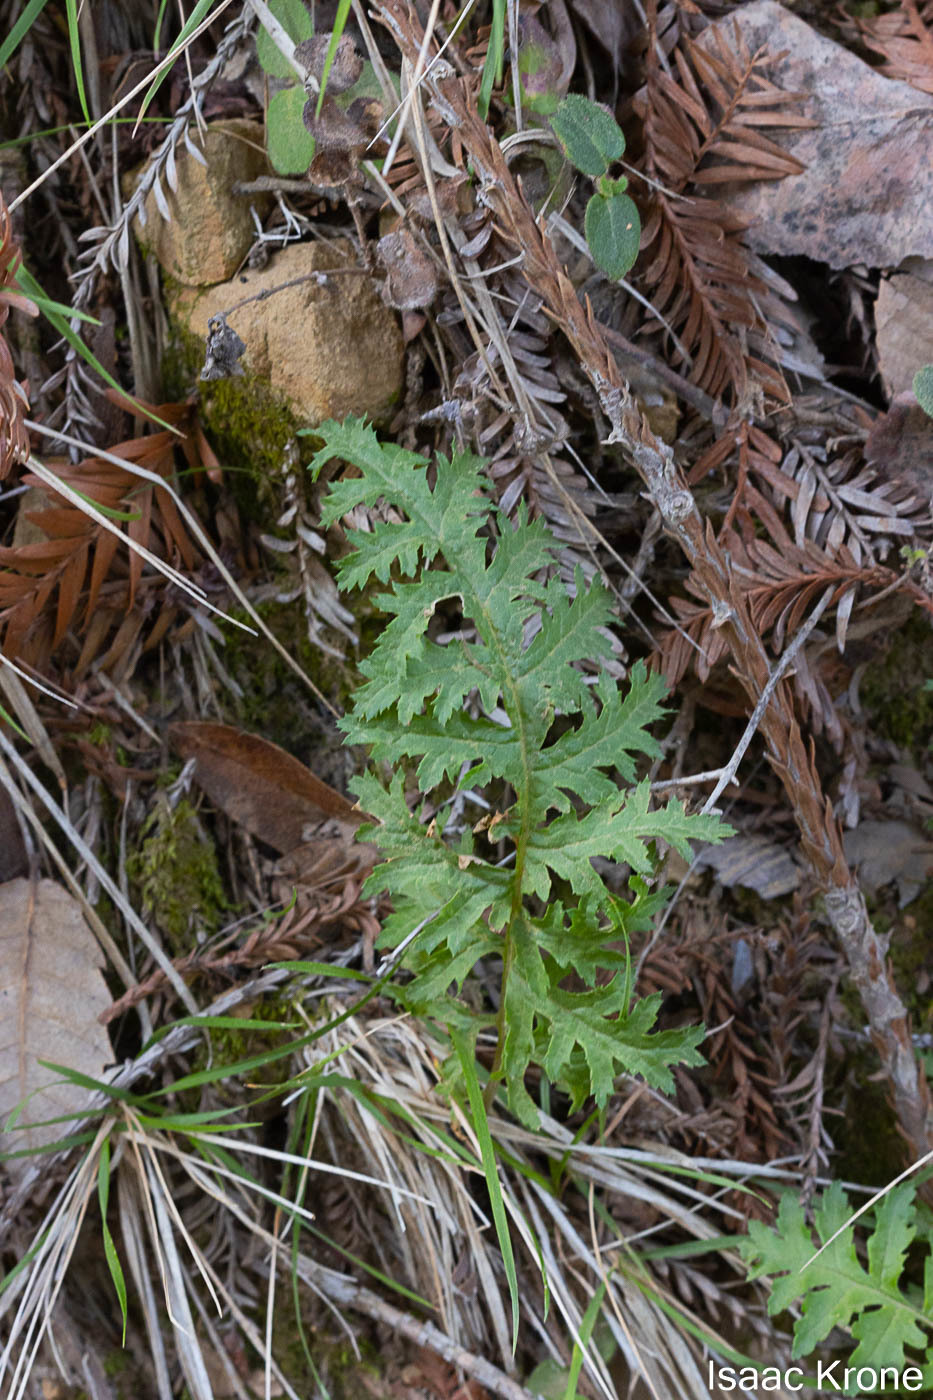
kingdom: Plantae
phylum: Tracheophyta
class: Magnoliopsida
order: Lamiales
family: Orobanchaceae
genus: Pedicularis
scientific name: Pedicularis densiflora
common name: Indian warrior
